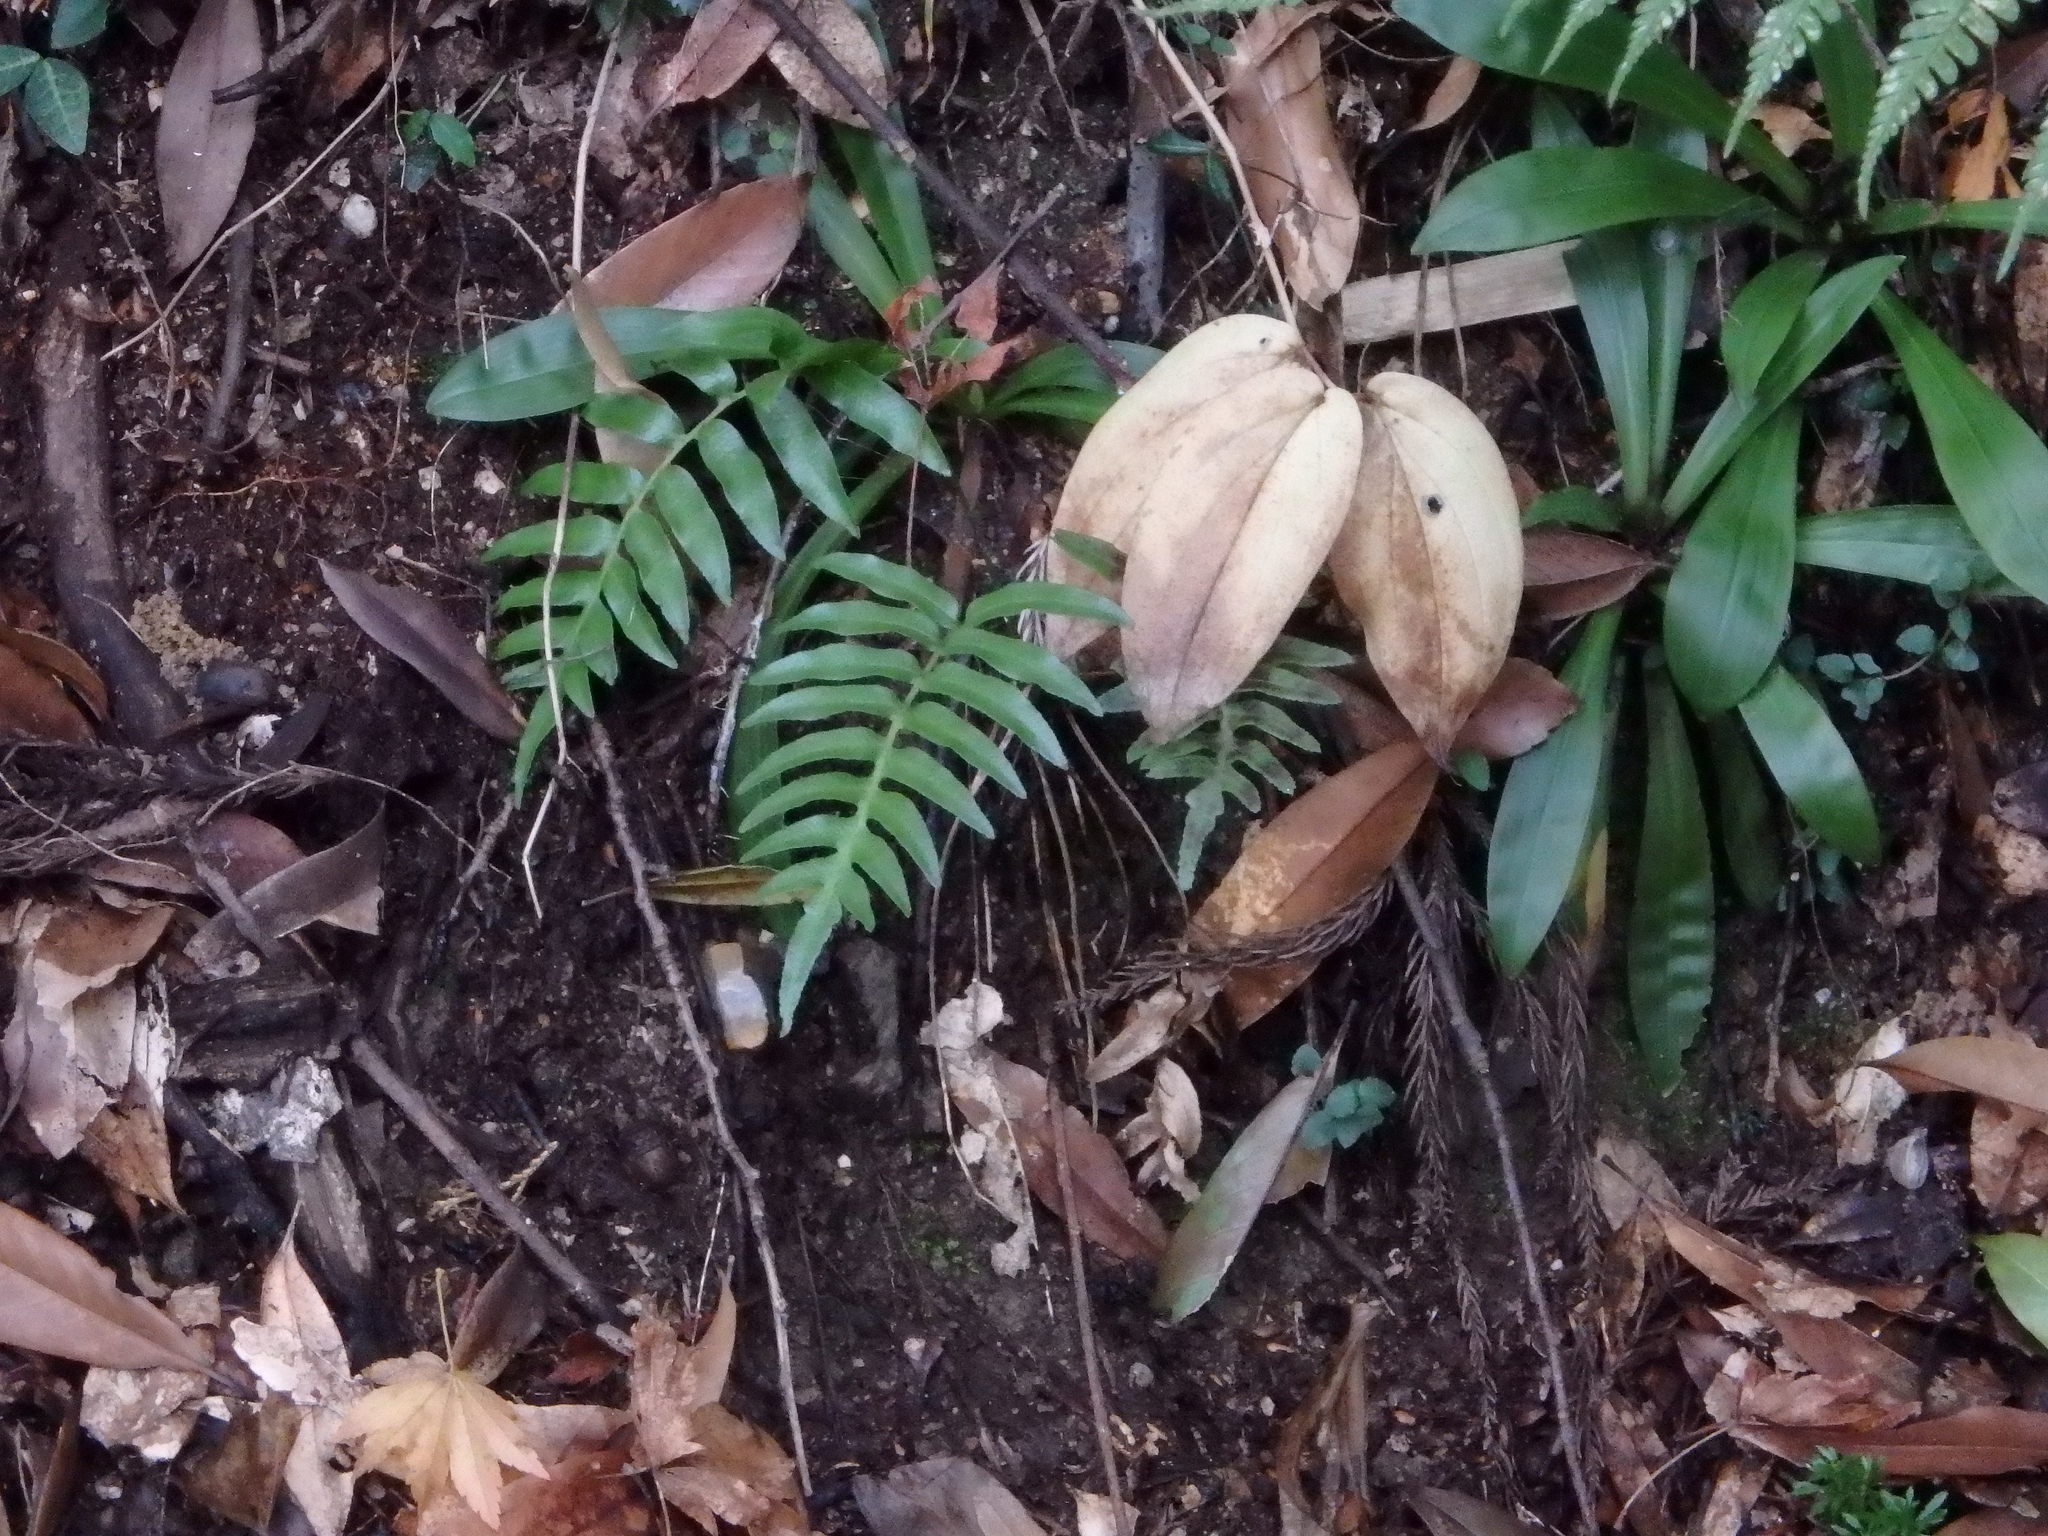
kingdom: Plantae
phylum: Tracheophyta
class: Polypodiopsida
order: Cyatheales
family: Plagiogyriaceae
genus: Plagiogyria
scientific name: Plagiogyria japonica
